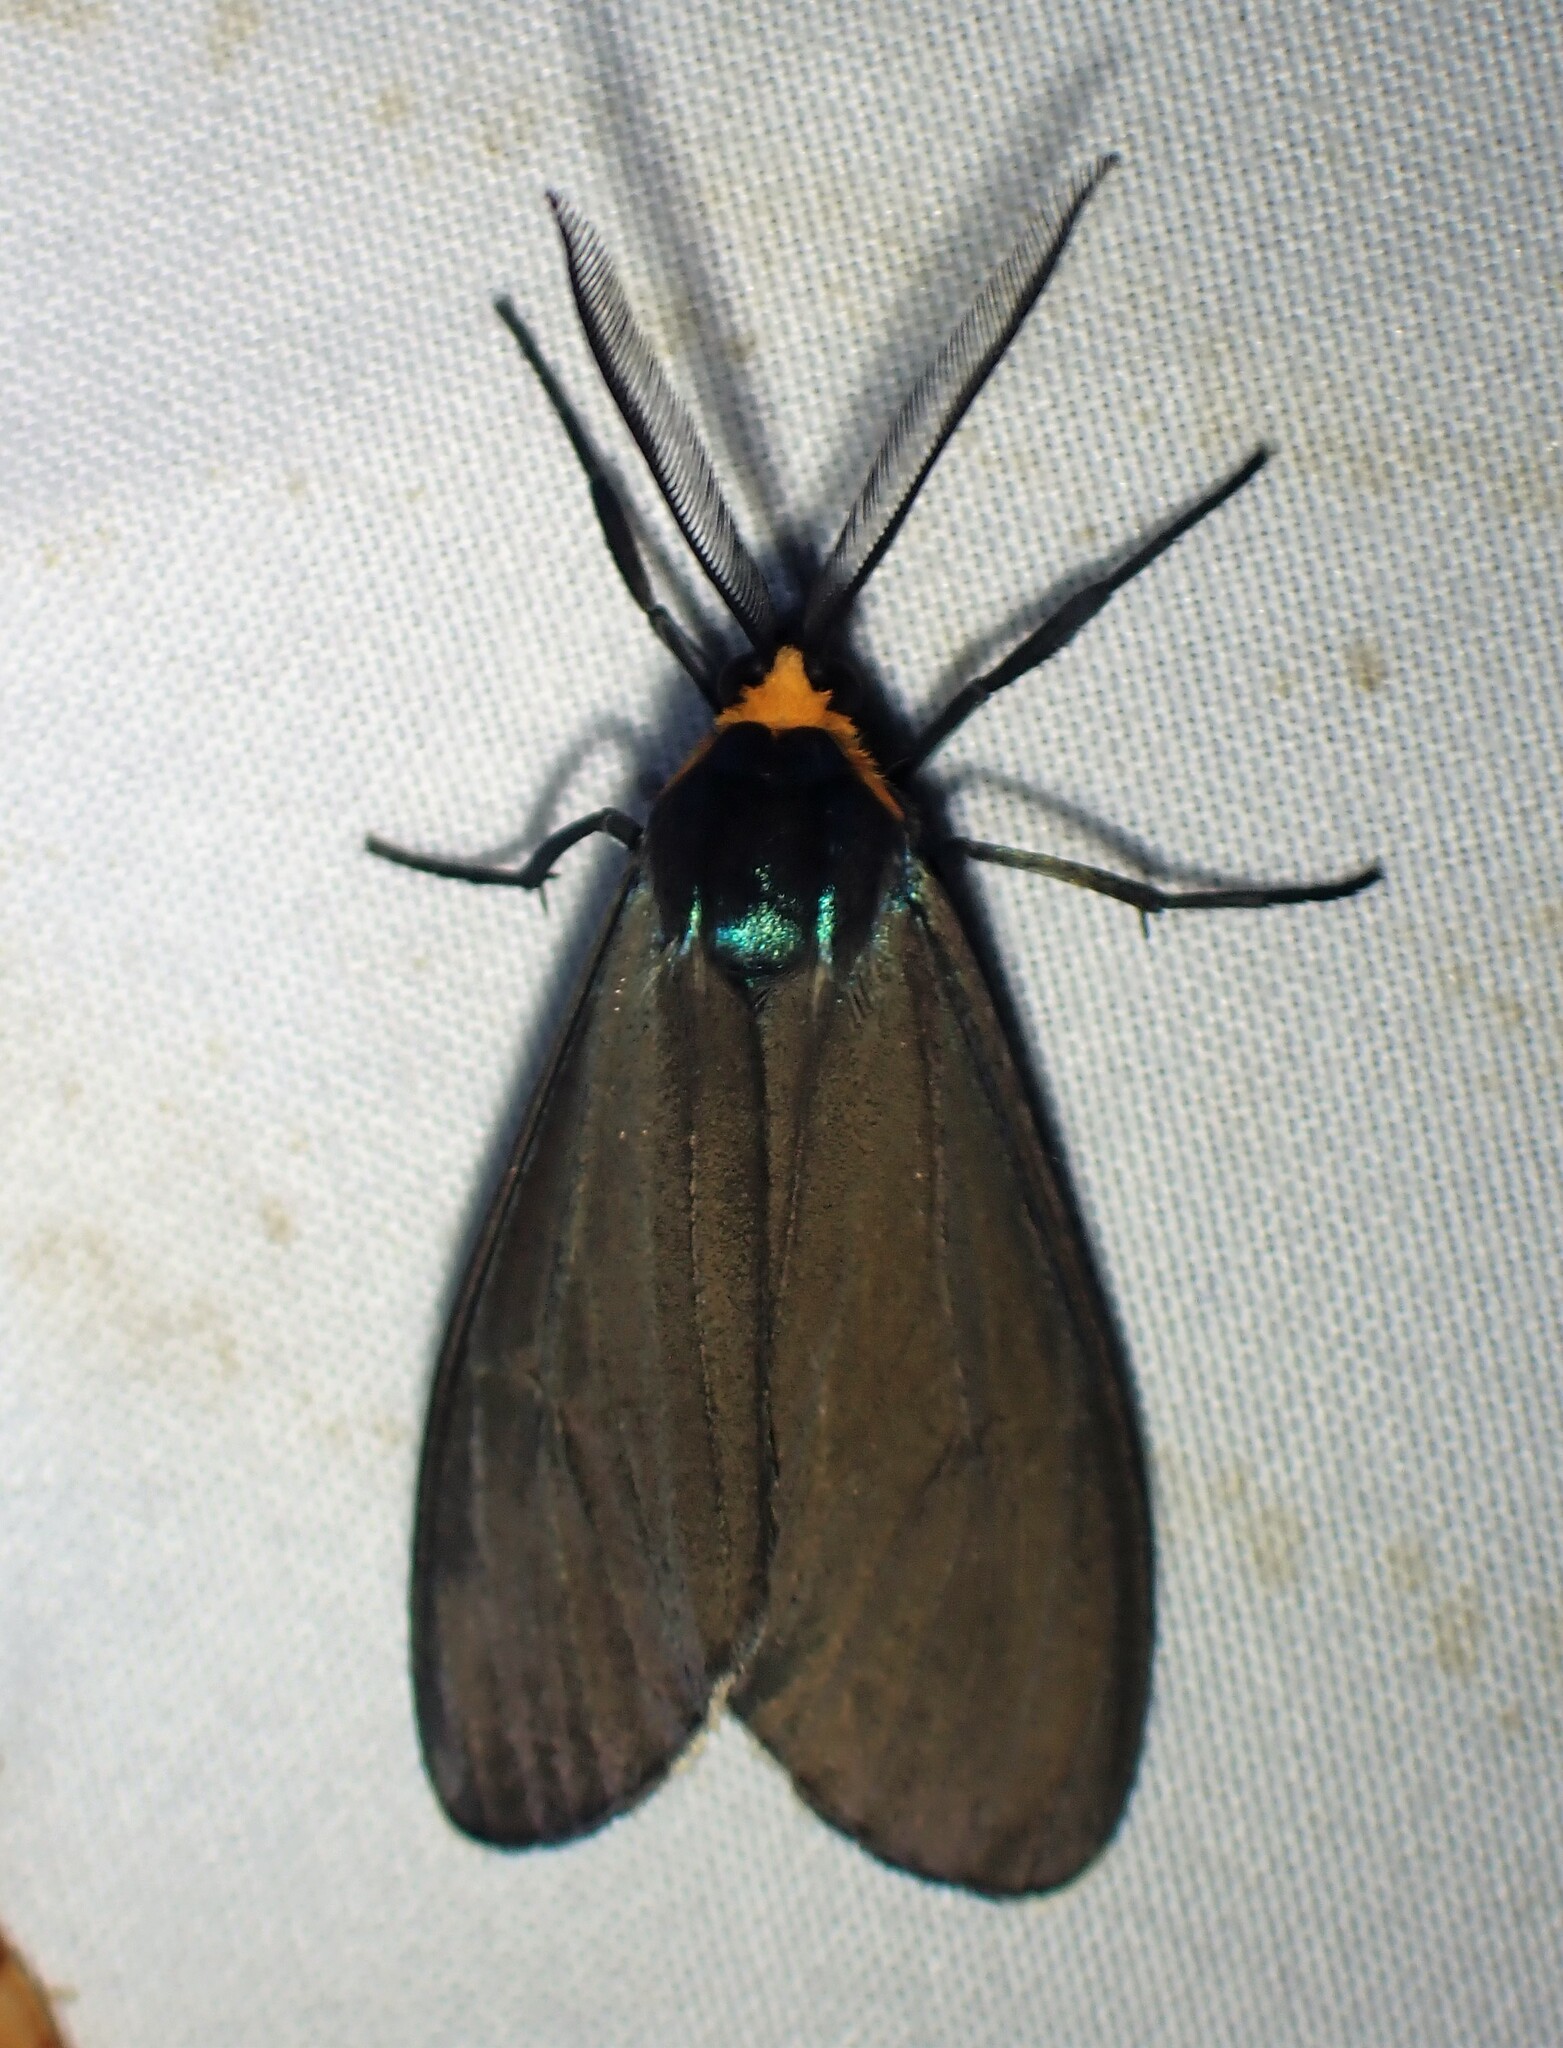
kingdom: Animalia
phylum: Arthropoda
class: Insecta
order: Lepidoptera
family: Erebidae
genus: Ctenucha
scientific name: Ctenucha virginica
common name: Virginia ctenucha moth
